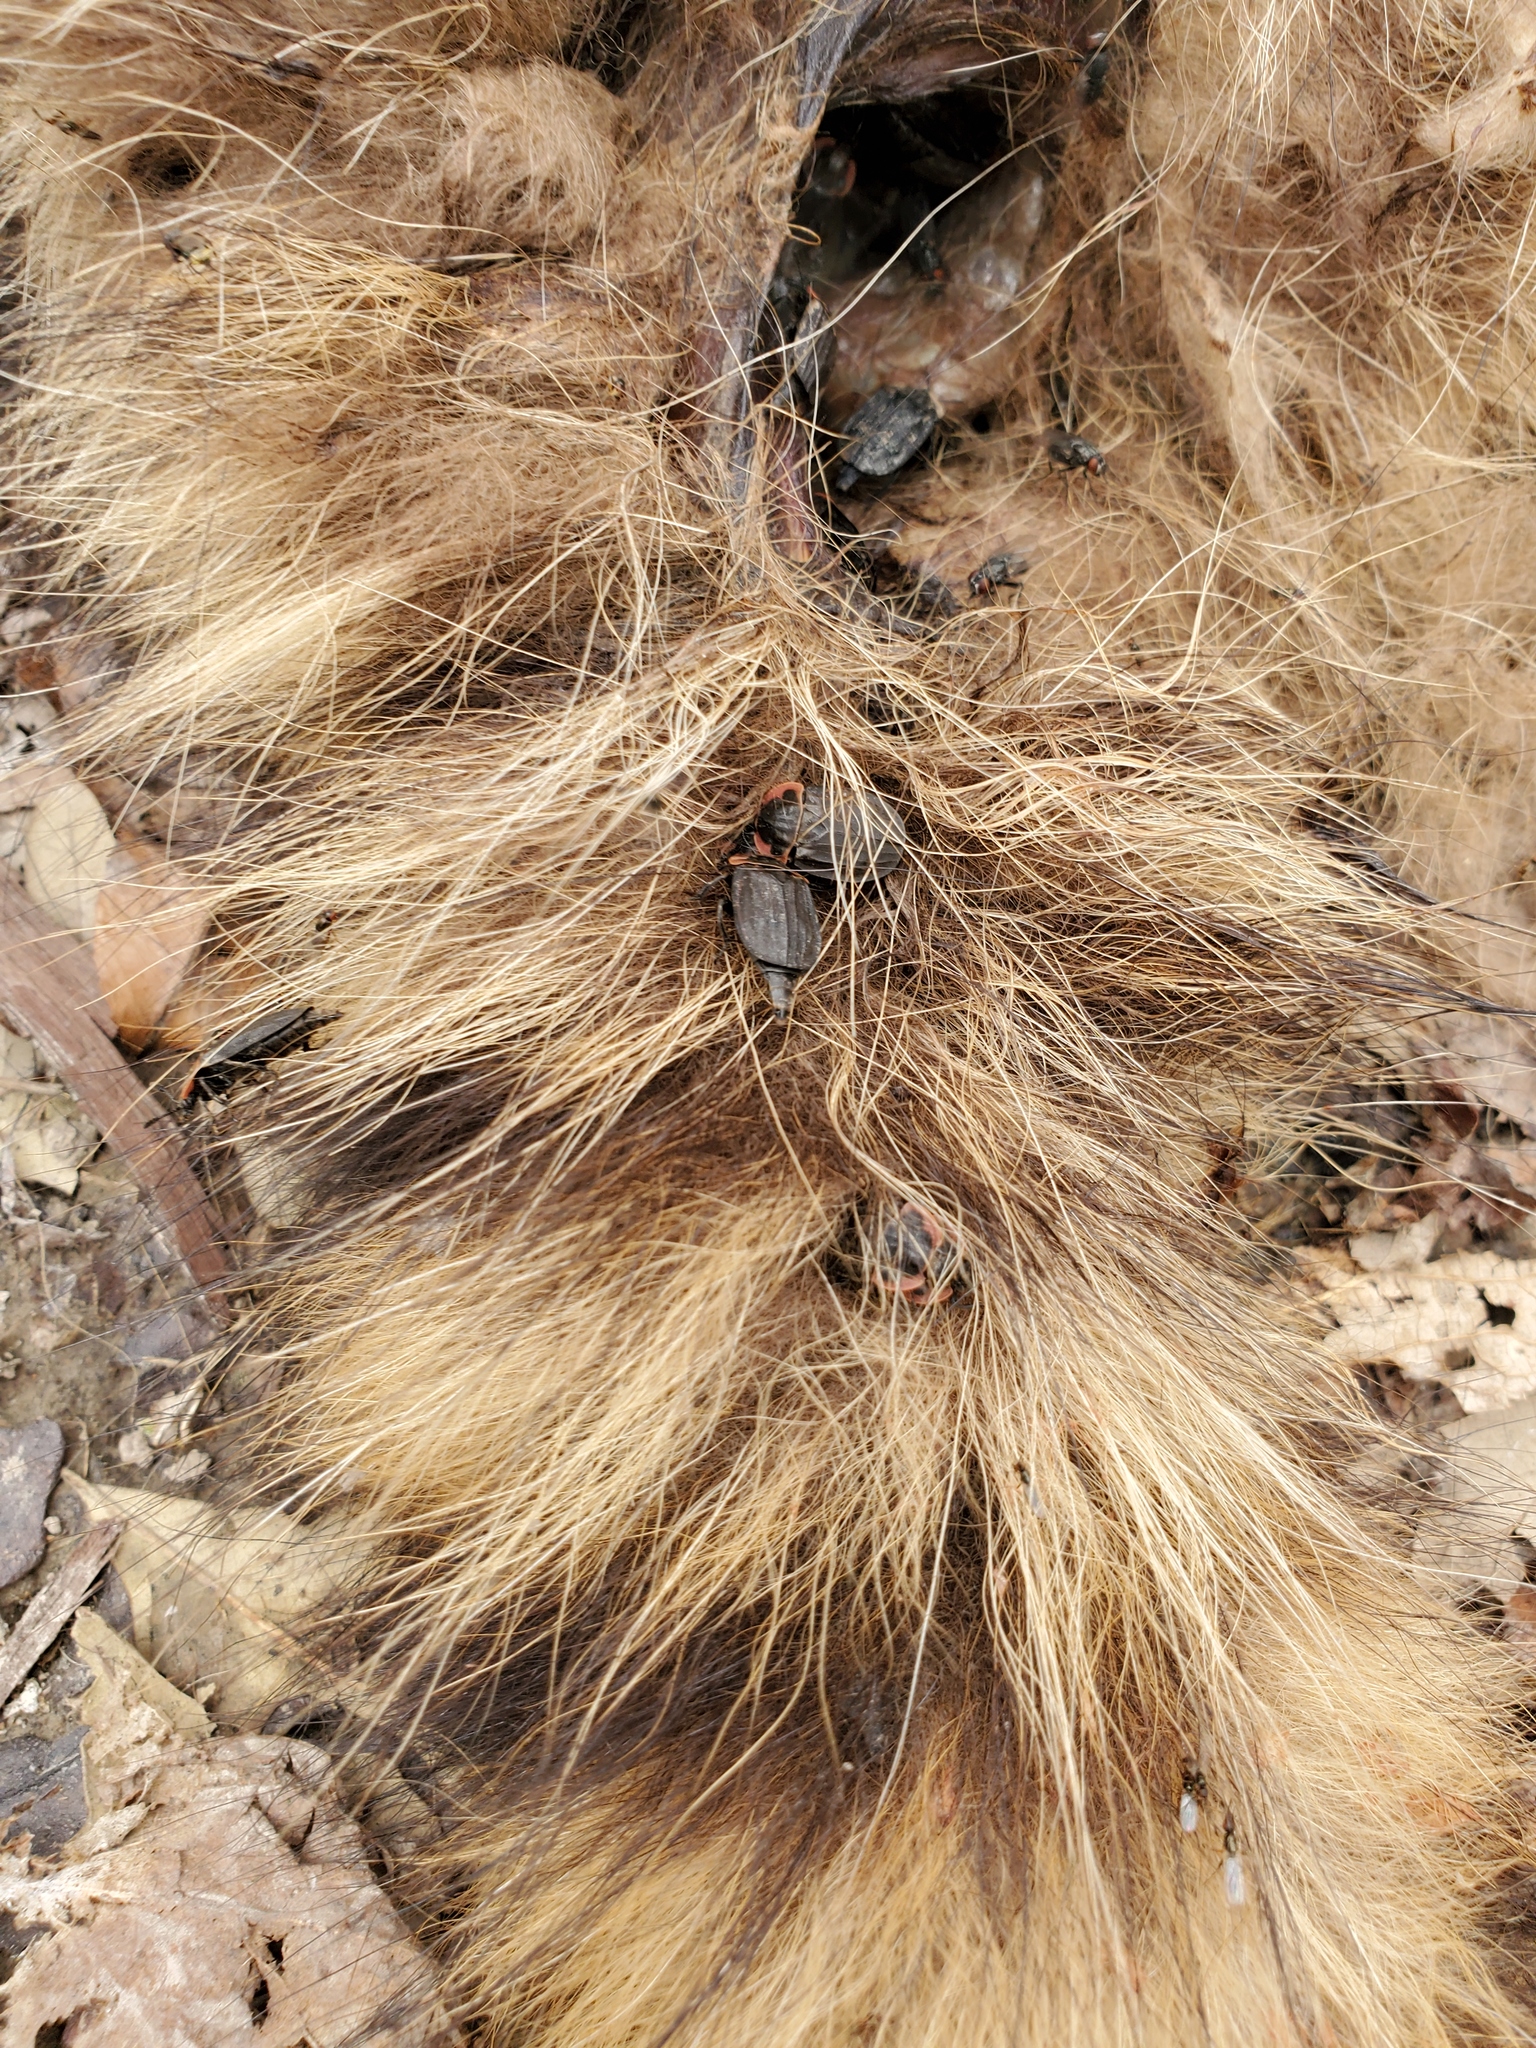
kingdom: Animalia
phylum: Arthropoda
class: Insecta
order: Coleoptera
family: Staphylinidae
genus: Oiceoptoma
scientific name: Oiceoptoma noveboracense
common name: Margined carrion beetle
